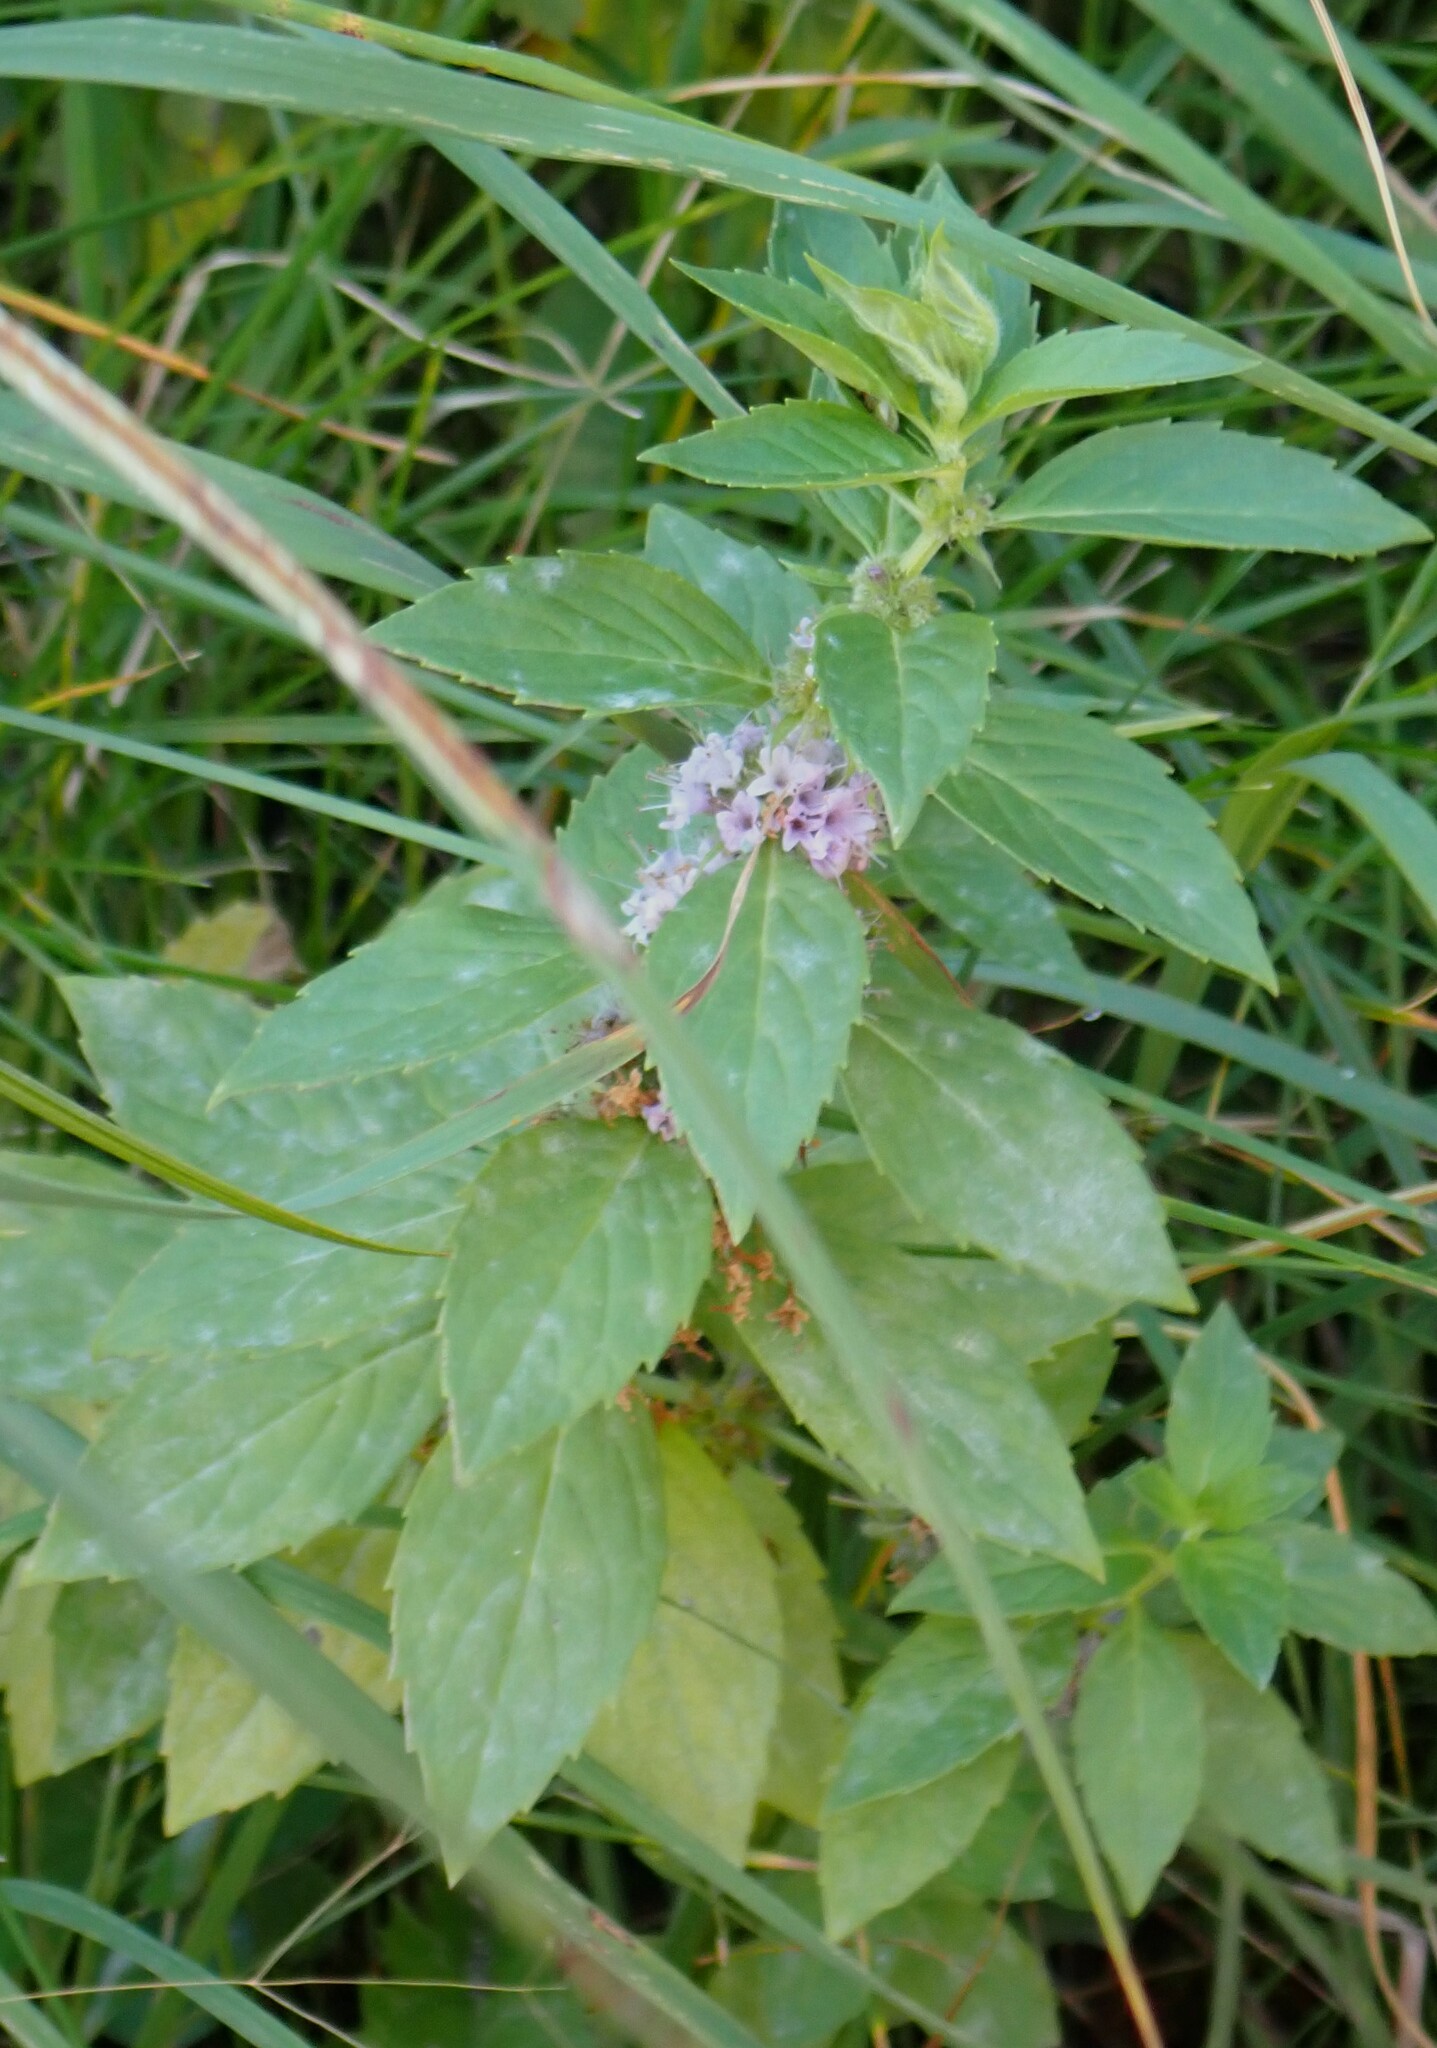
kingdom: Plantae
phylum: Tracheophyta
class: Magnoliopsida
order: Lamiales
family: Lamiaceae
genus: Mentha
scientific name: Mentha canadensis
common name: American corn mint
